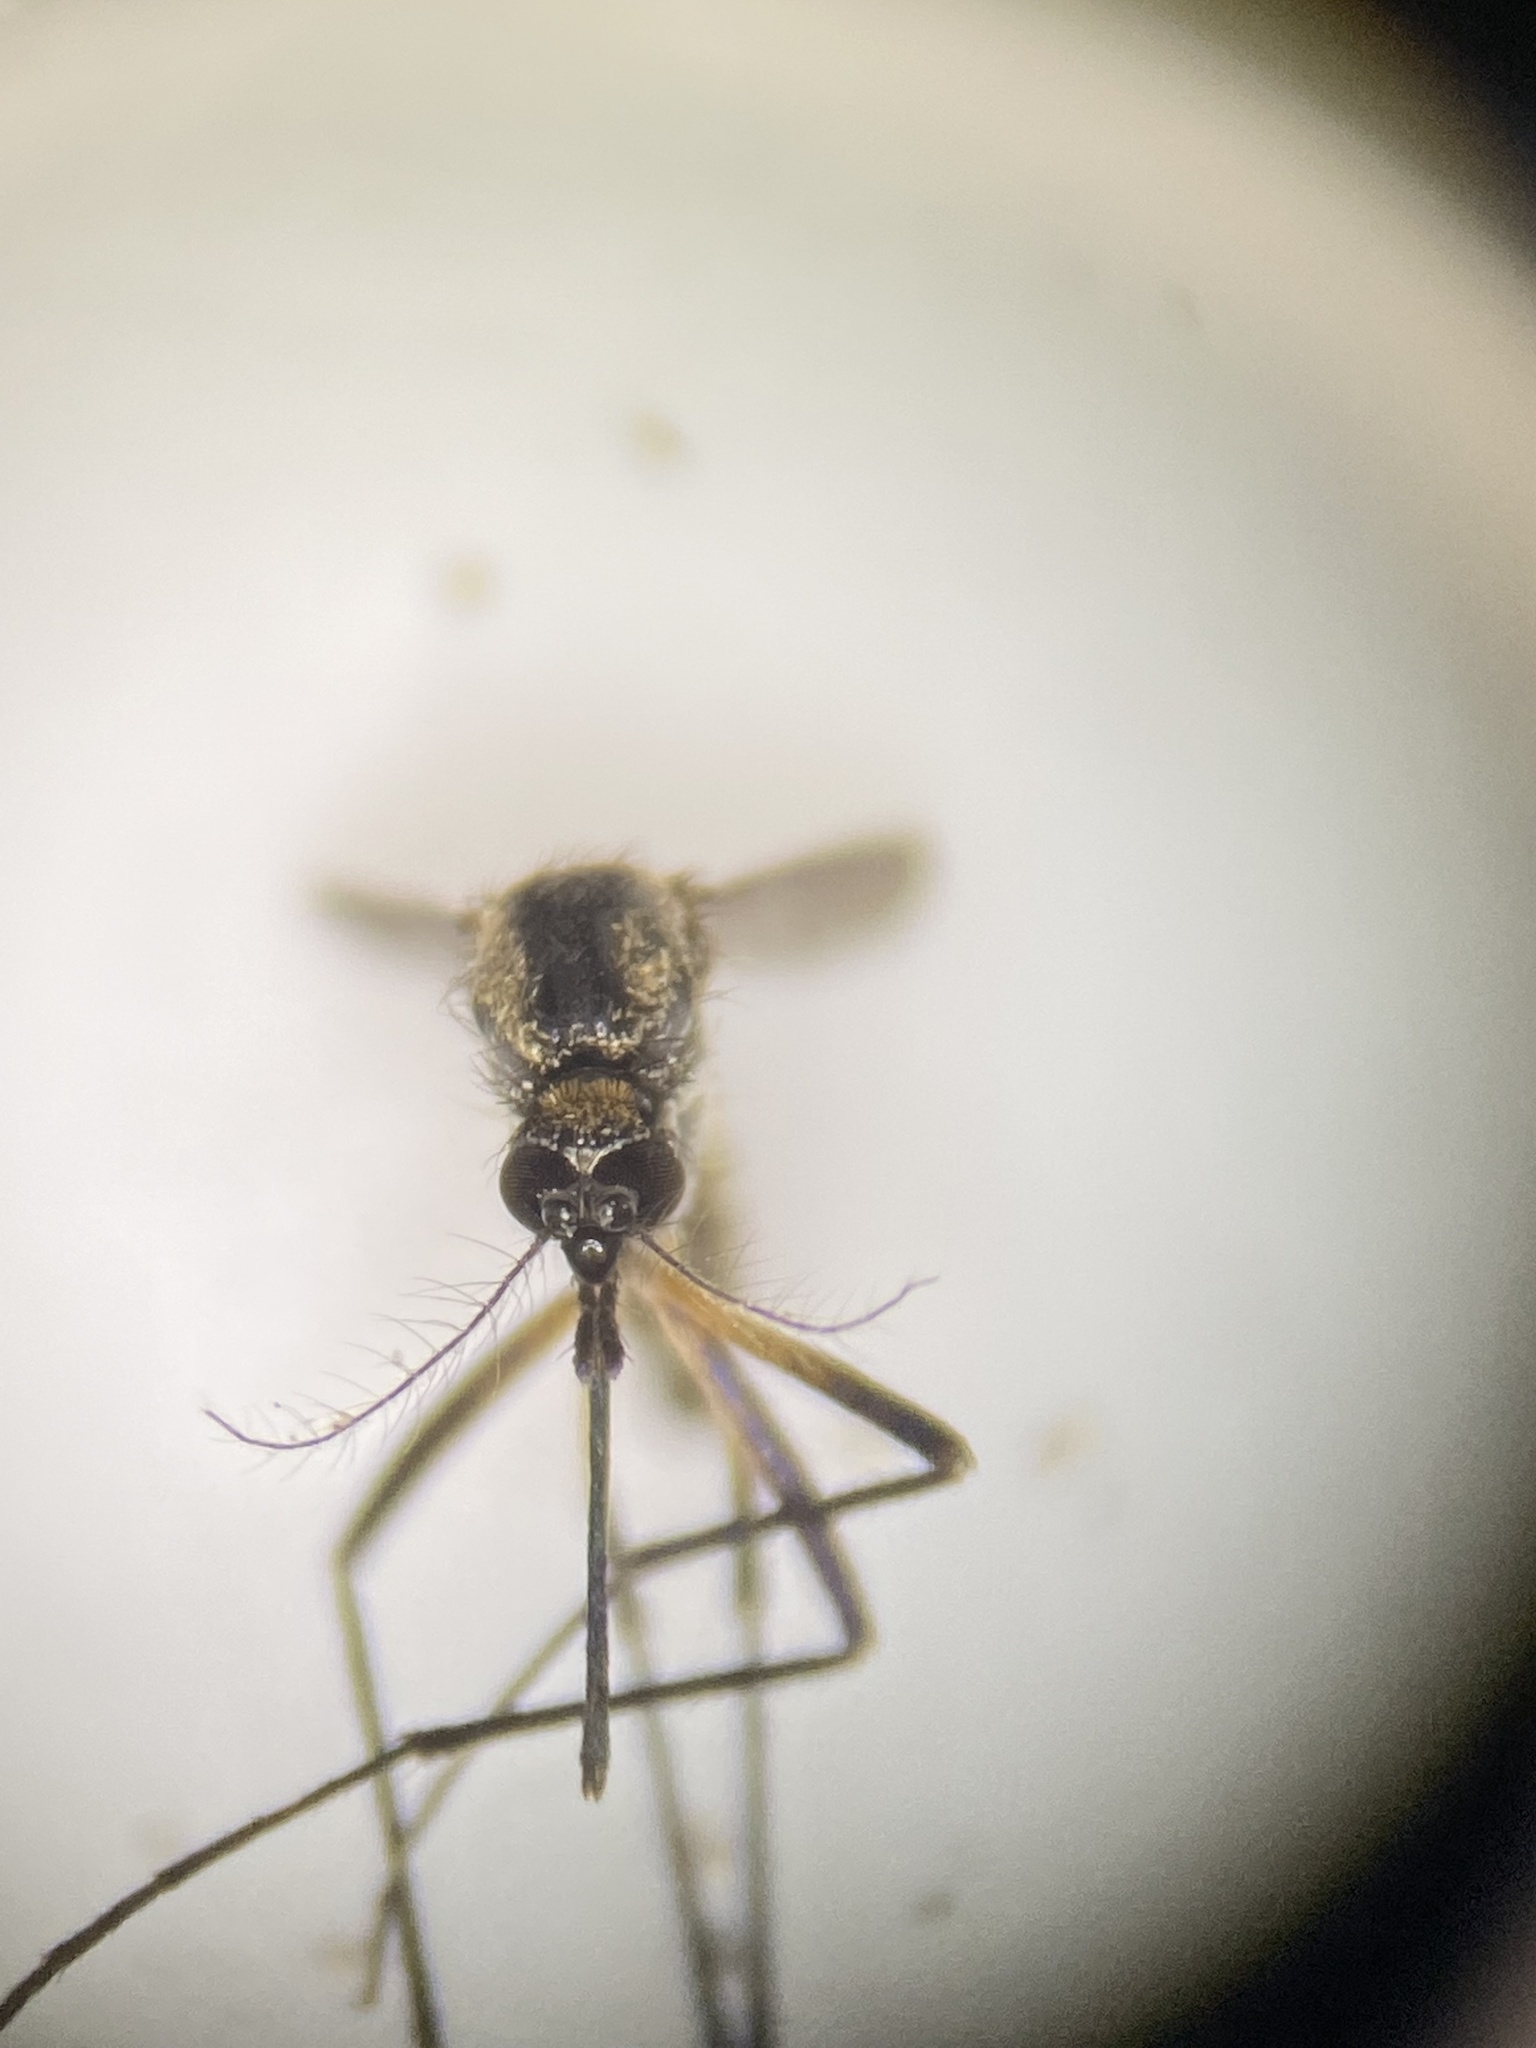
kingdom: Animalia
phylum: Arthropoda
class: Insecta
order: Diptera
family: Culicidae
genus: Psorophora
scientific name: Psorophora mathesoni
